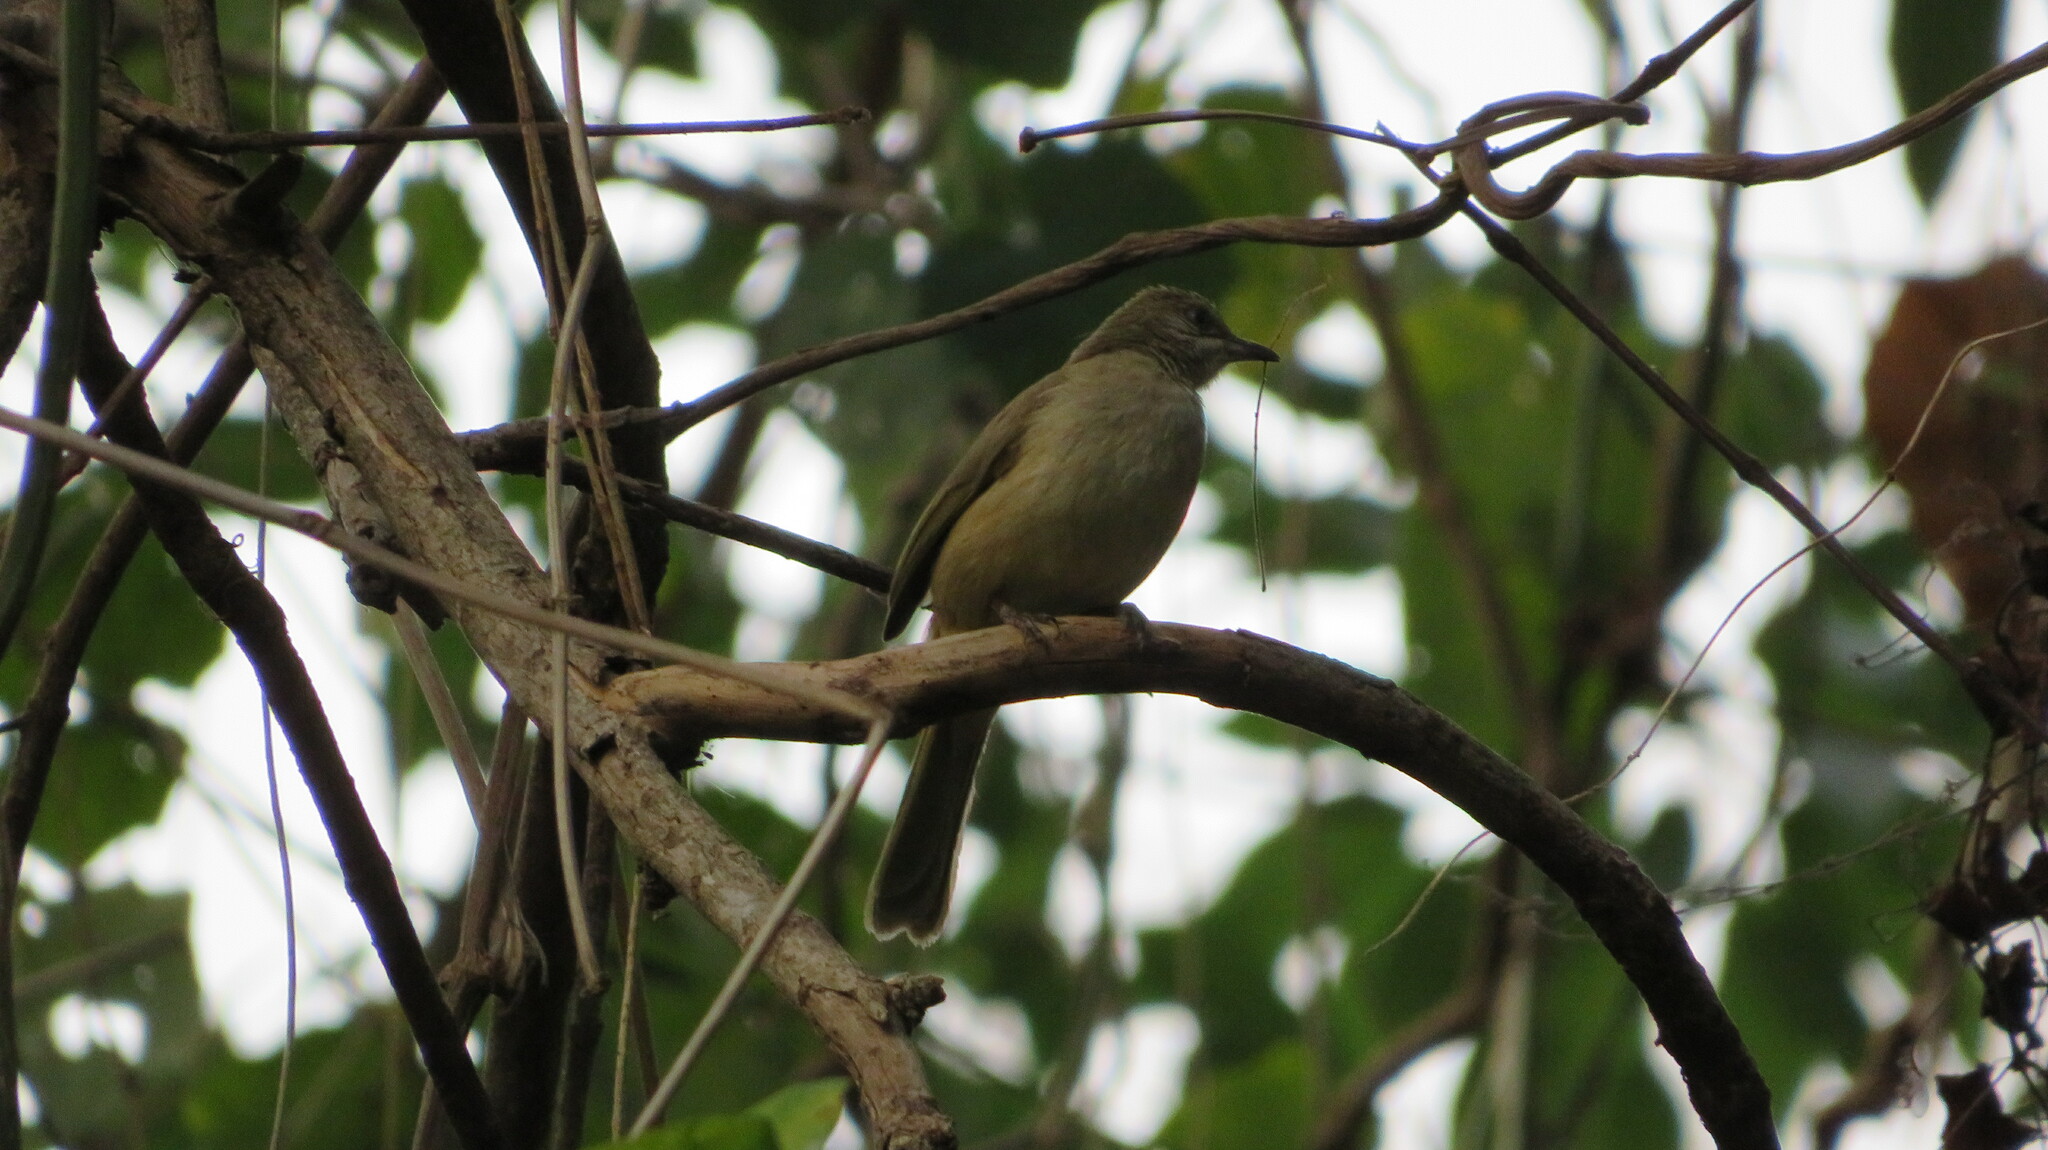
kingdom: Animalia
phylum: Chordata
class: Aves
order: Passeriformes
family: Pycnonotidae
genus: Pycnonotus
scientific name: Pycnonotus blanfordi
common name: Streak-eared bulbul
